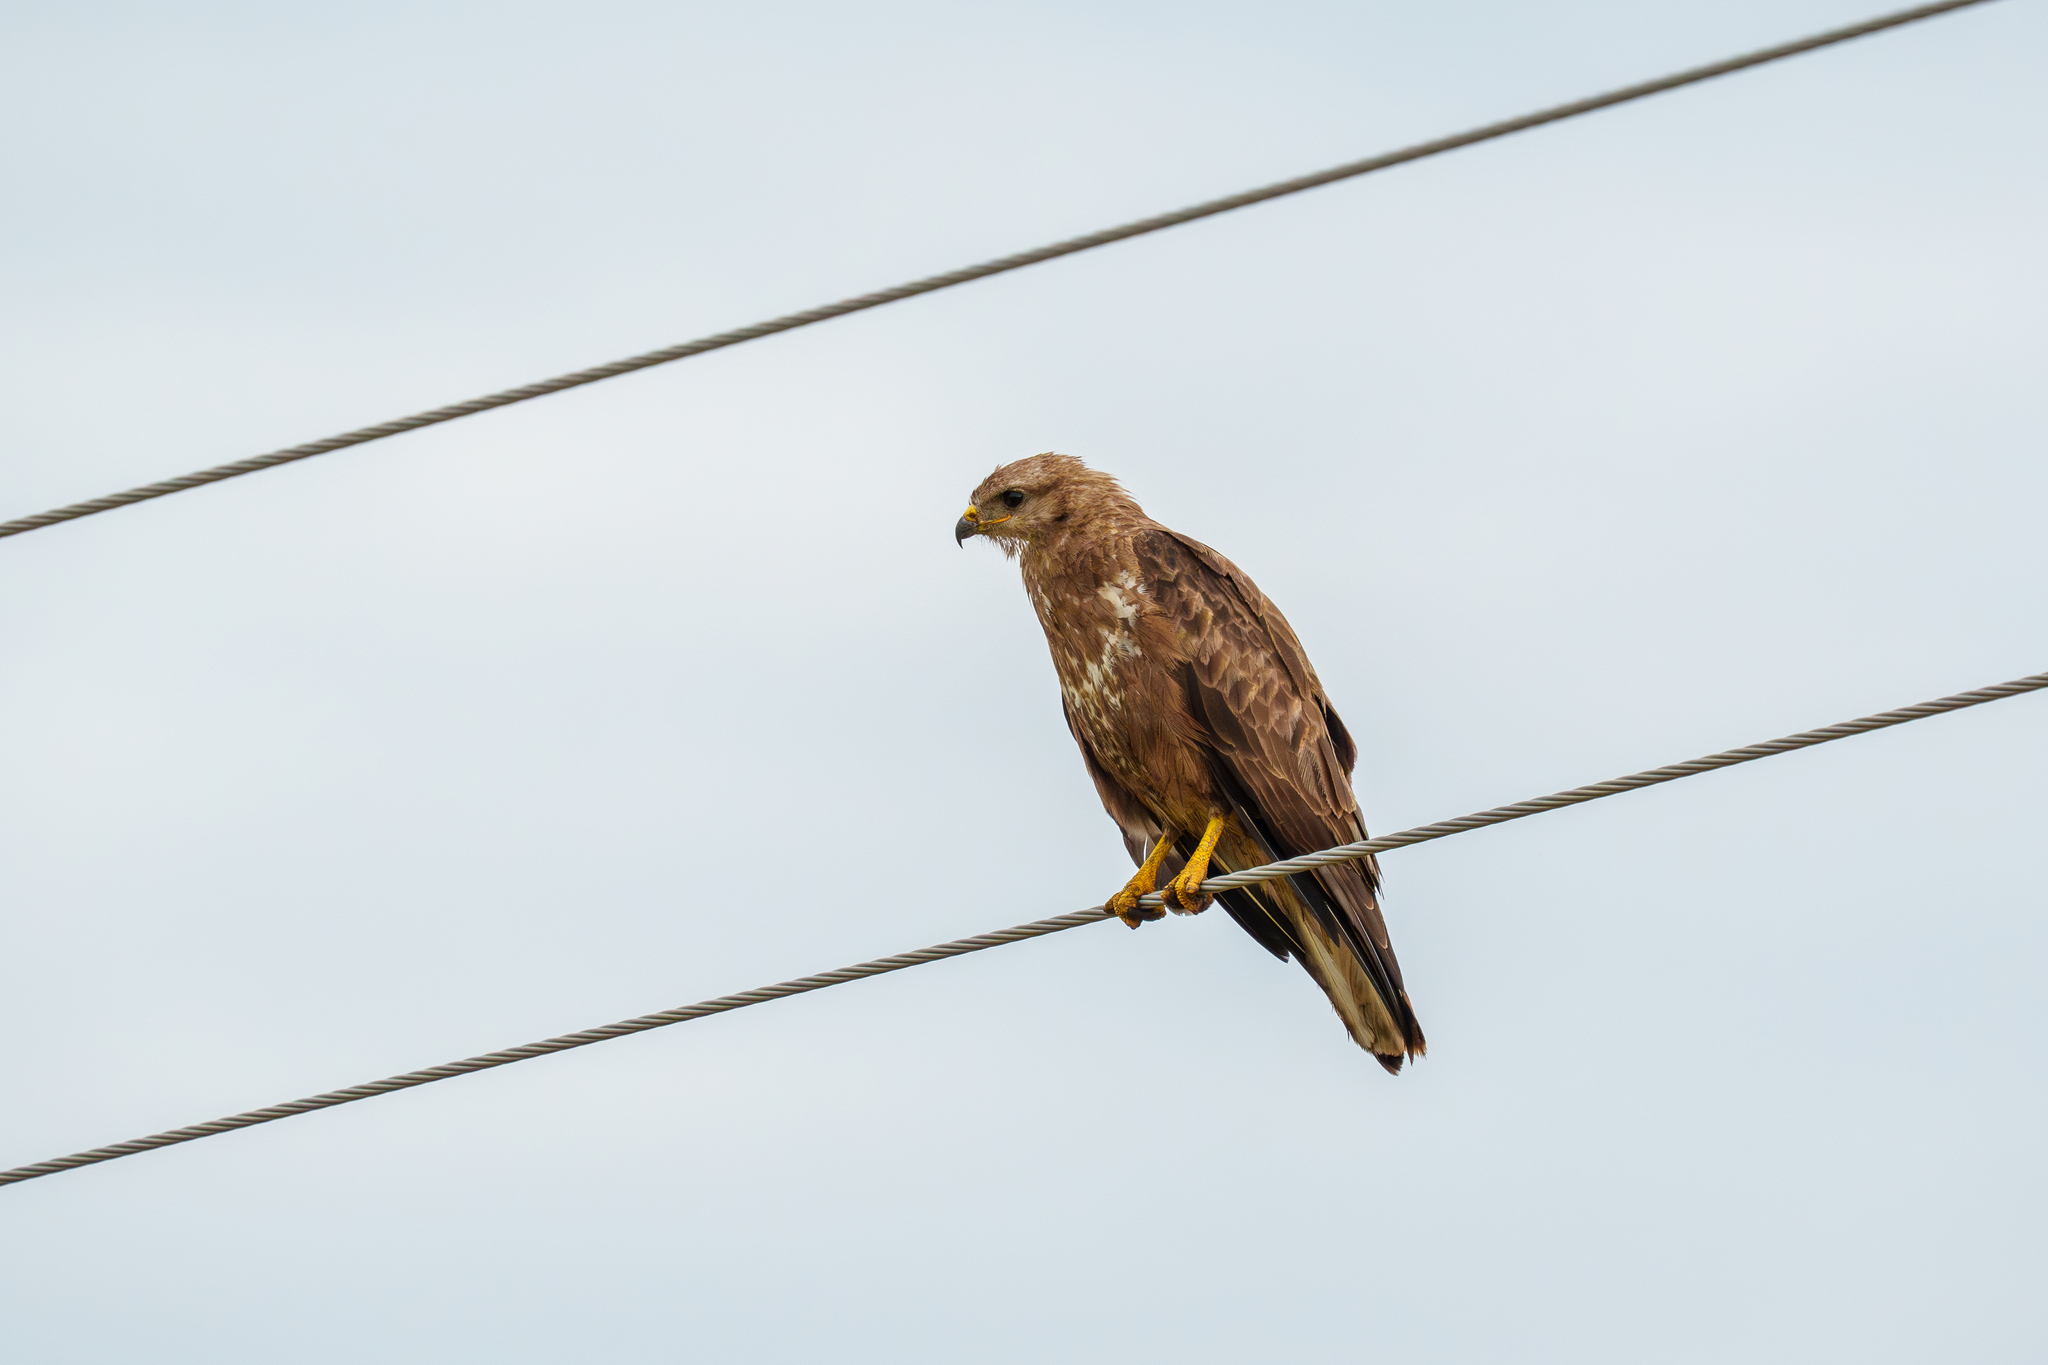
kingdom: Animalia
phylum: Chordata
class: Aves
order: Accipitriformes
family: Accipitridae
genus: Buteo
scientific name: Buteo buteo
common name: Common buzzard
